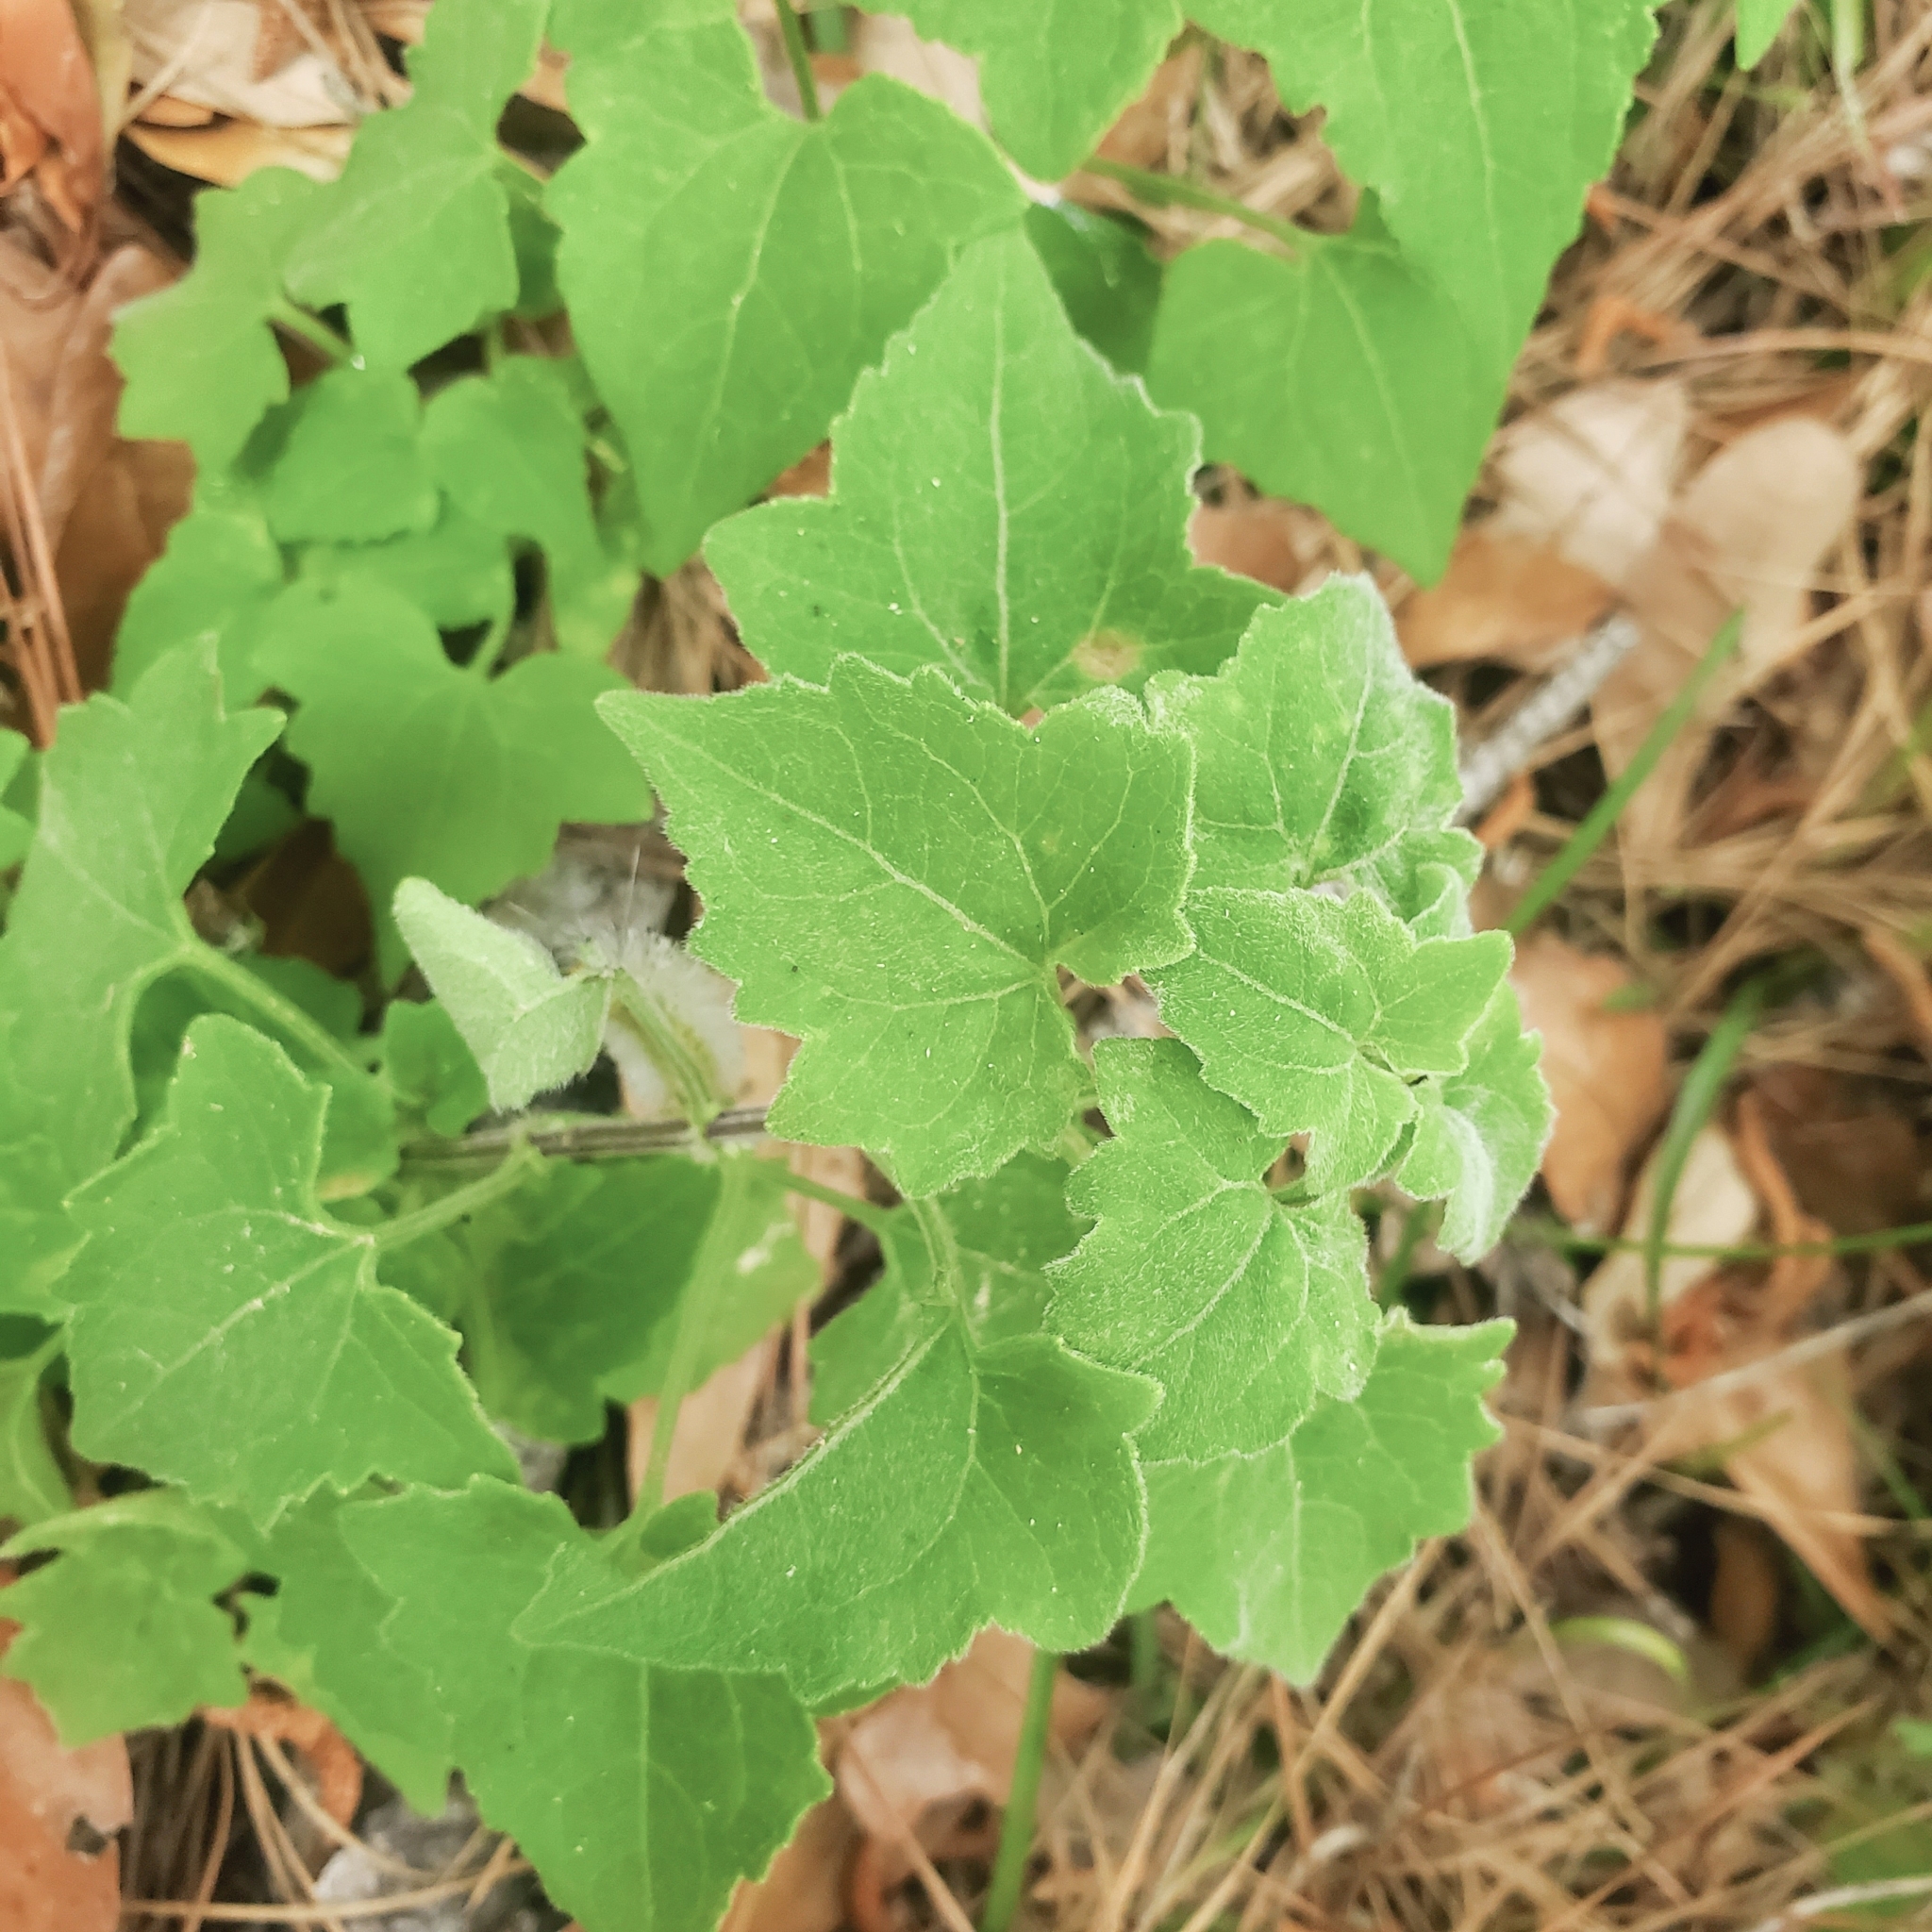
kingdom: Animalia
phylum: Arthropoda
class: Insecta
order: Lepidoptera
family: Erebidae
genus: Cosmosoma
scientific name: Cosmosoma myrodora
